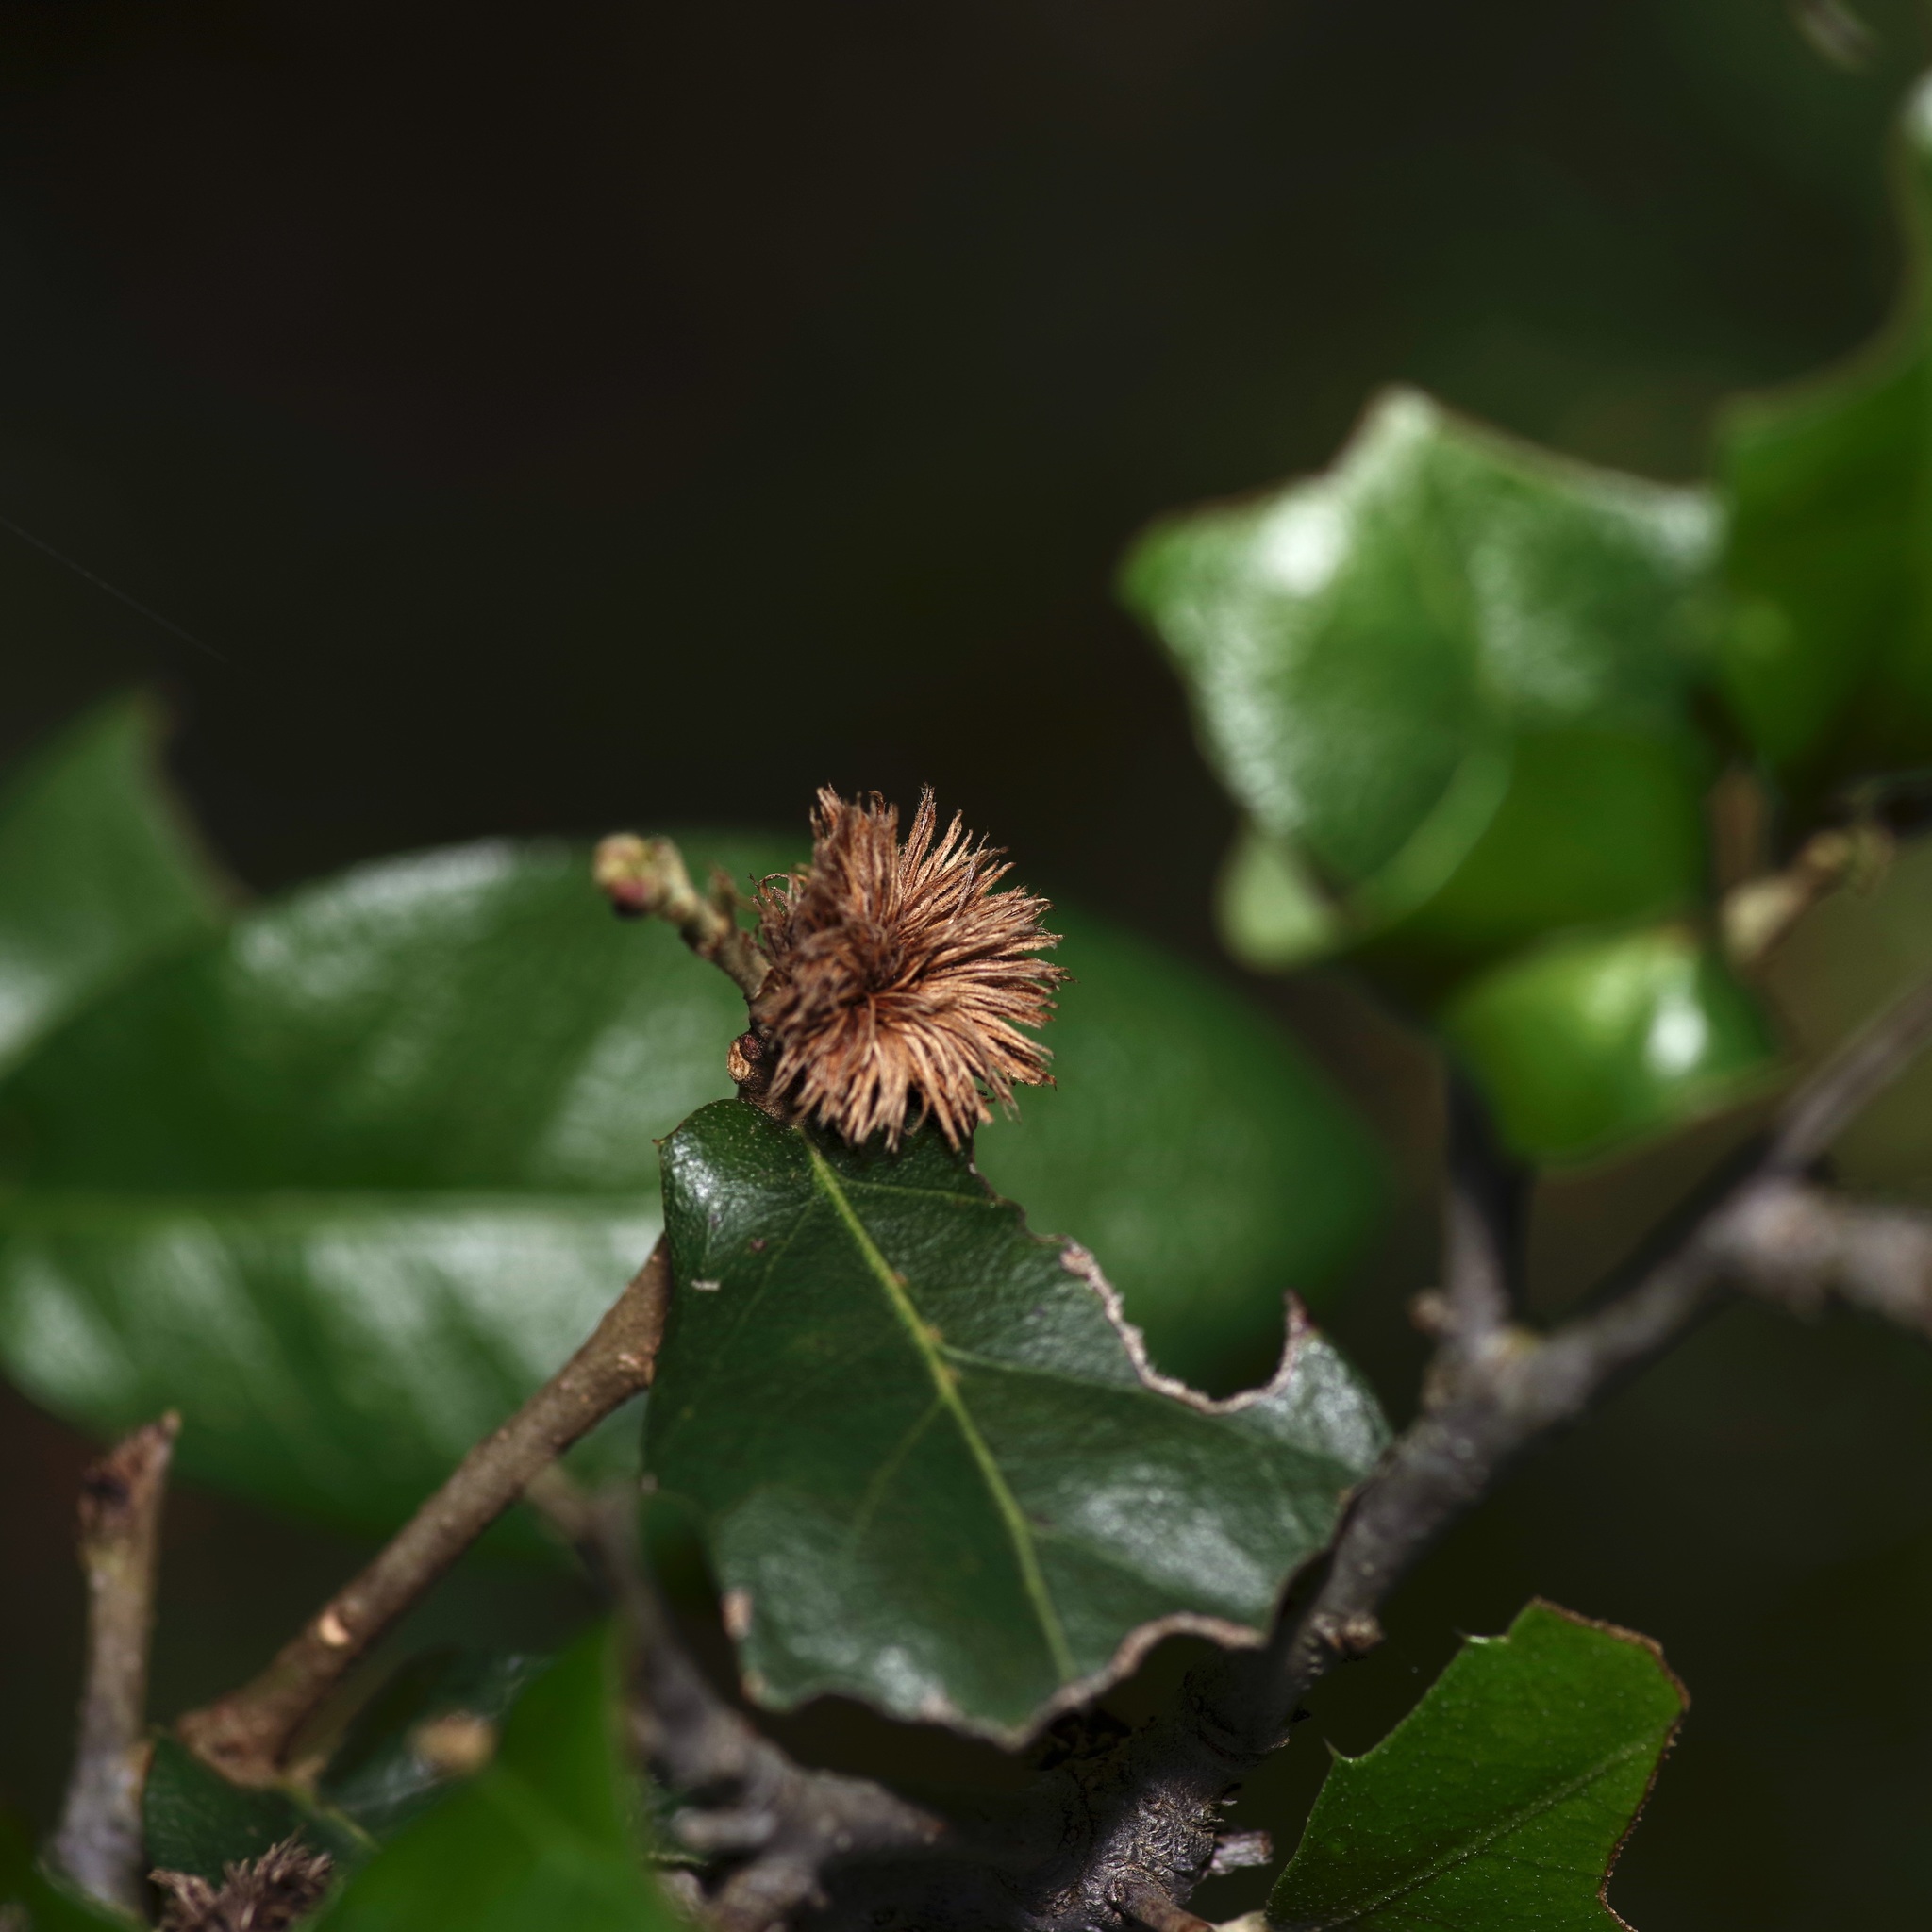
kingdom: Animalia
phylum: Arthropoda
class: Insecta
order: Hymenoptera
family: Cynipidae
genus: Andricus
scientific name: Andricus quercusfoliatus
